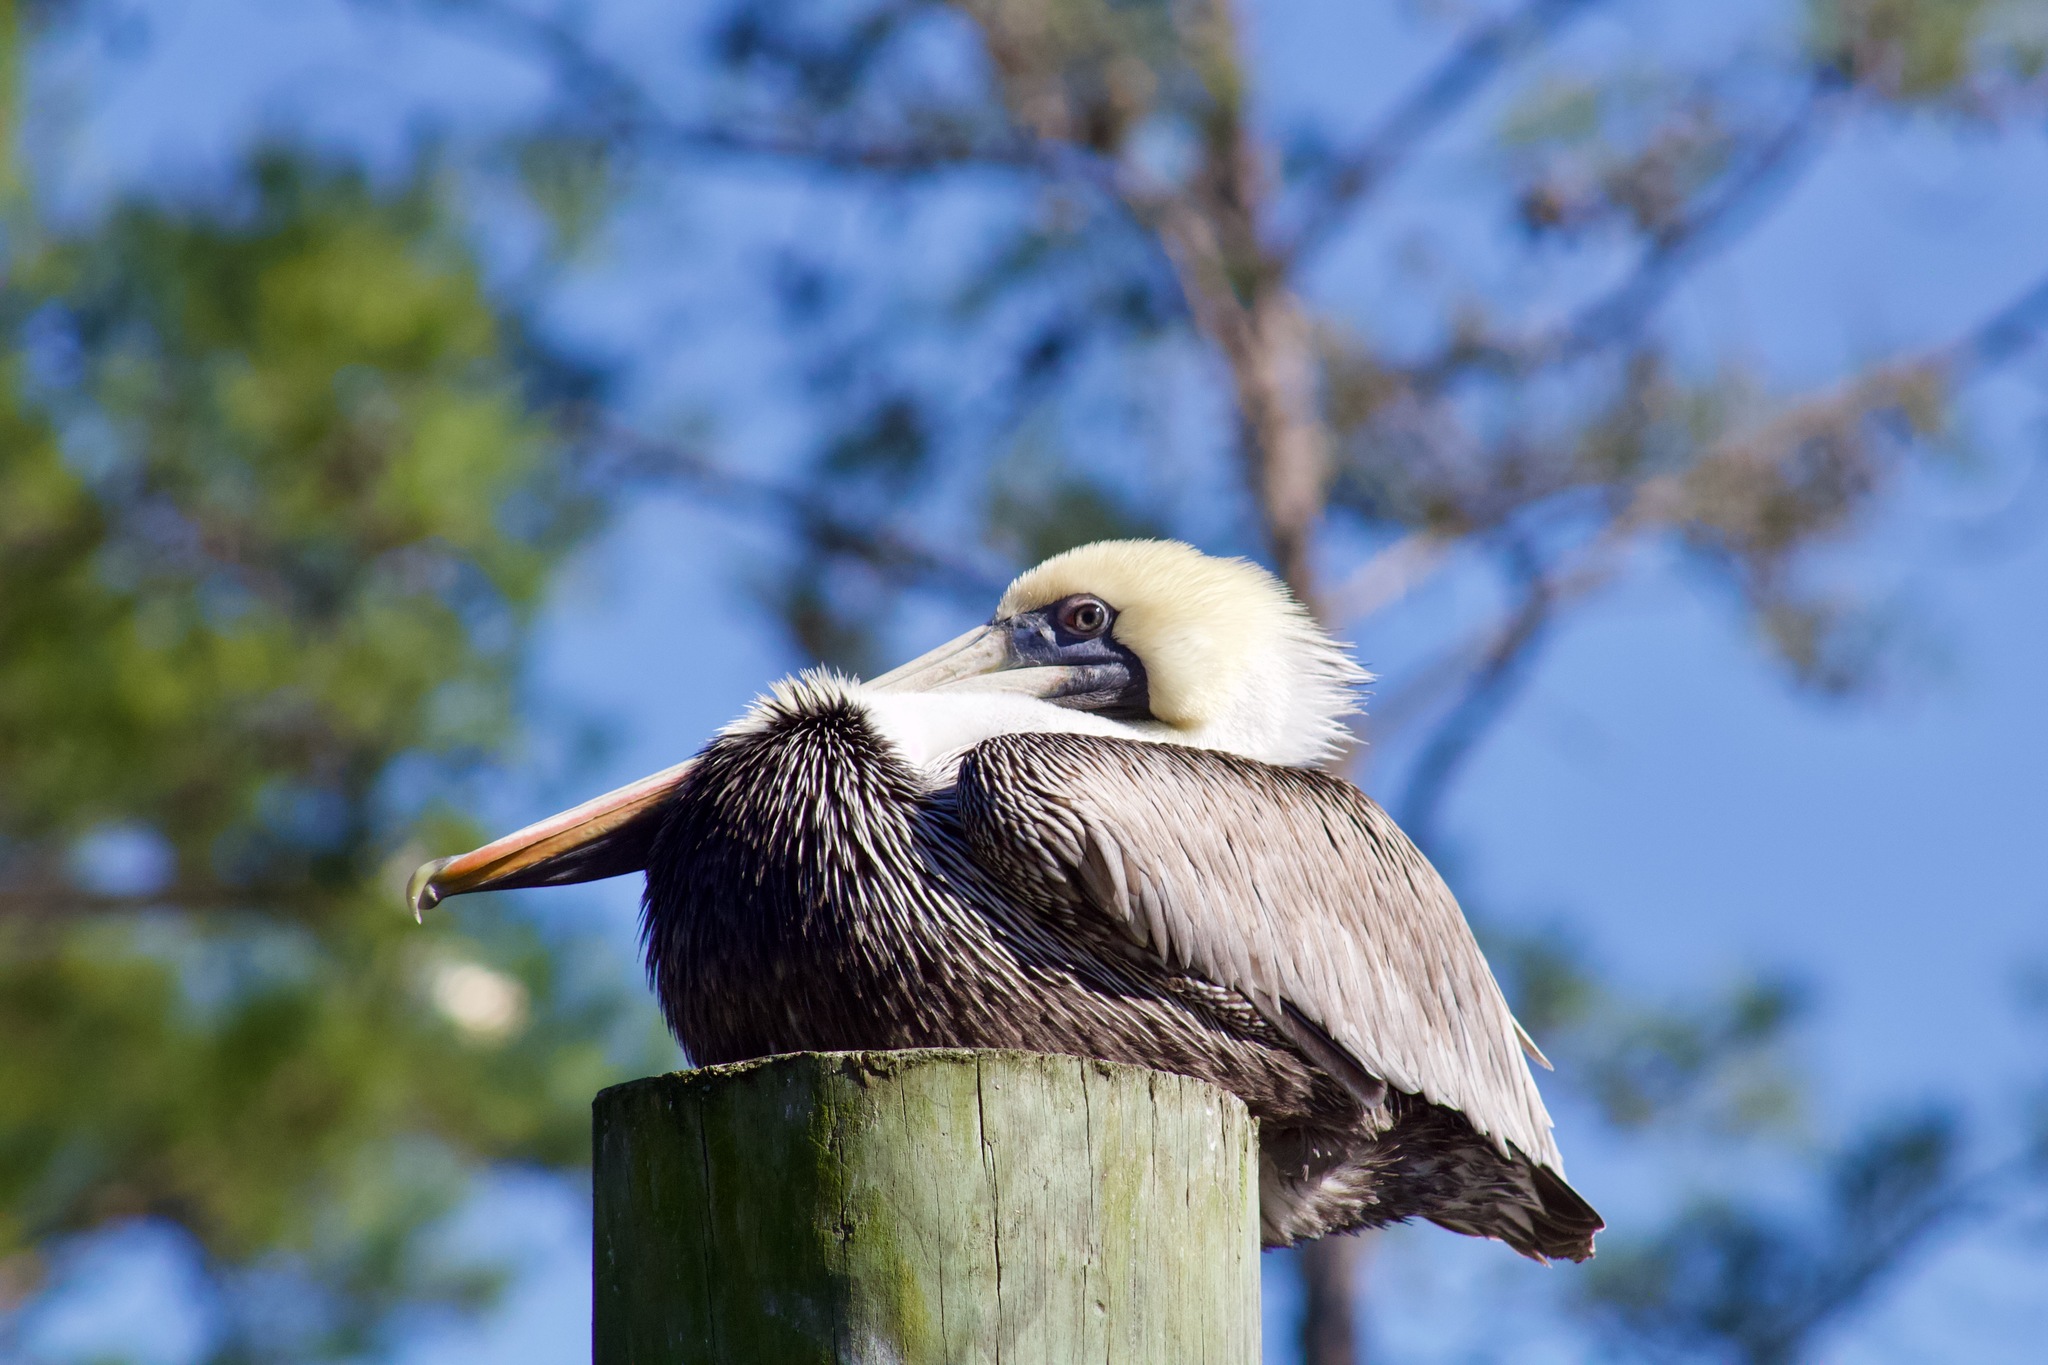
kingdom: Animalia
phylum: Chordata
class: Aves
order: Pelecaniformes
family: Pelecanidae
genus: Pelecanus
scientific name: Pelecanus occidentalis
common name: Brown pelican
